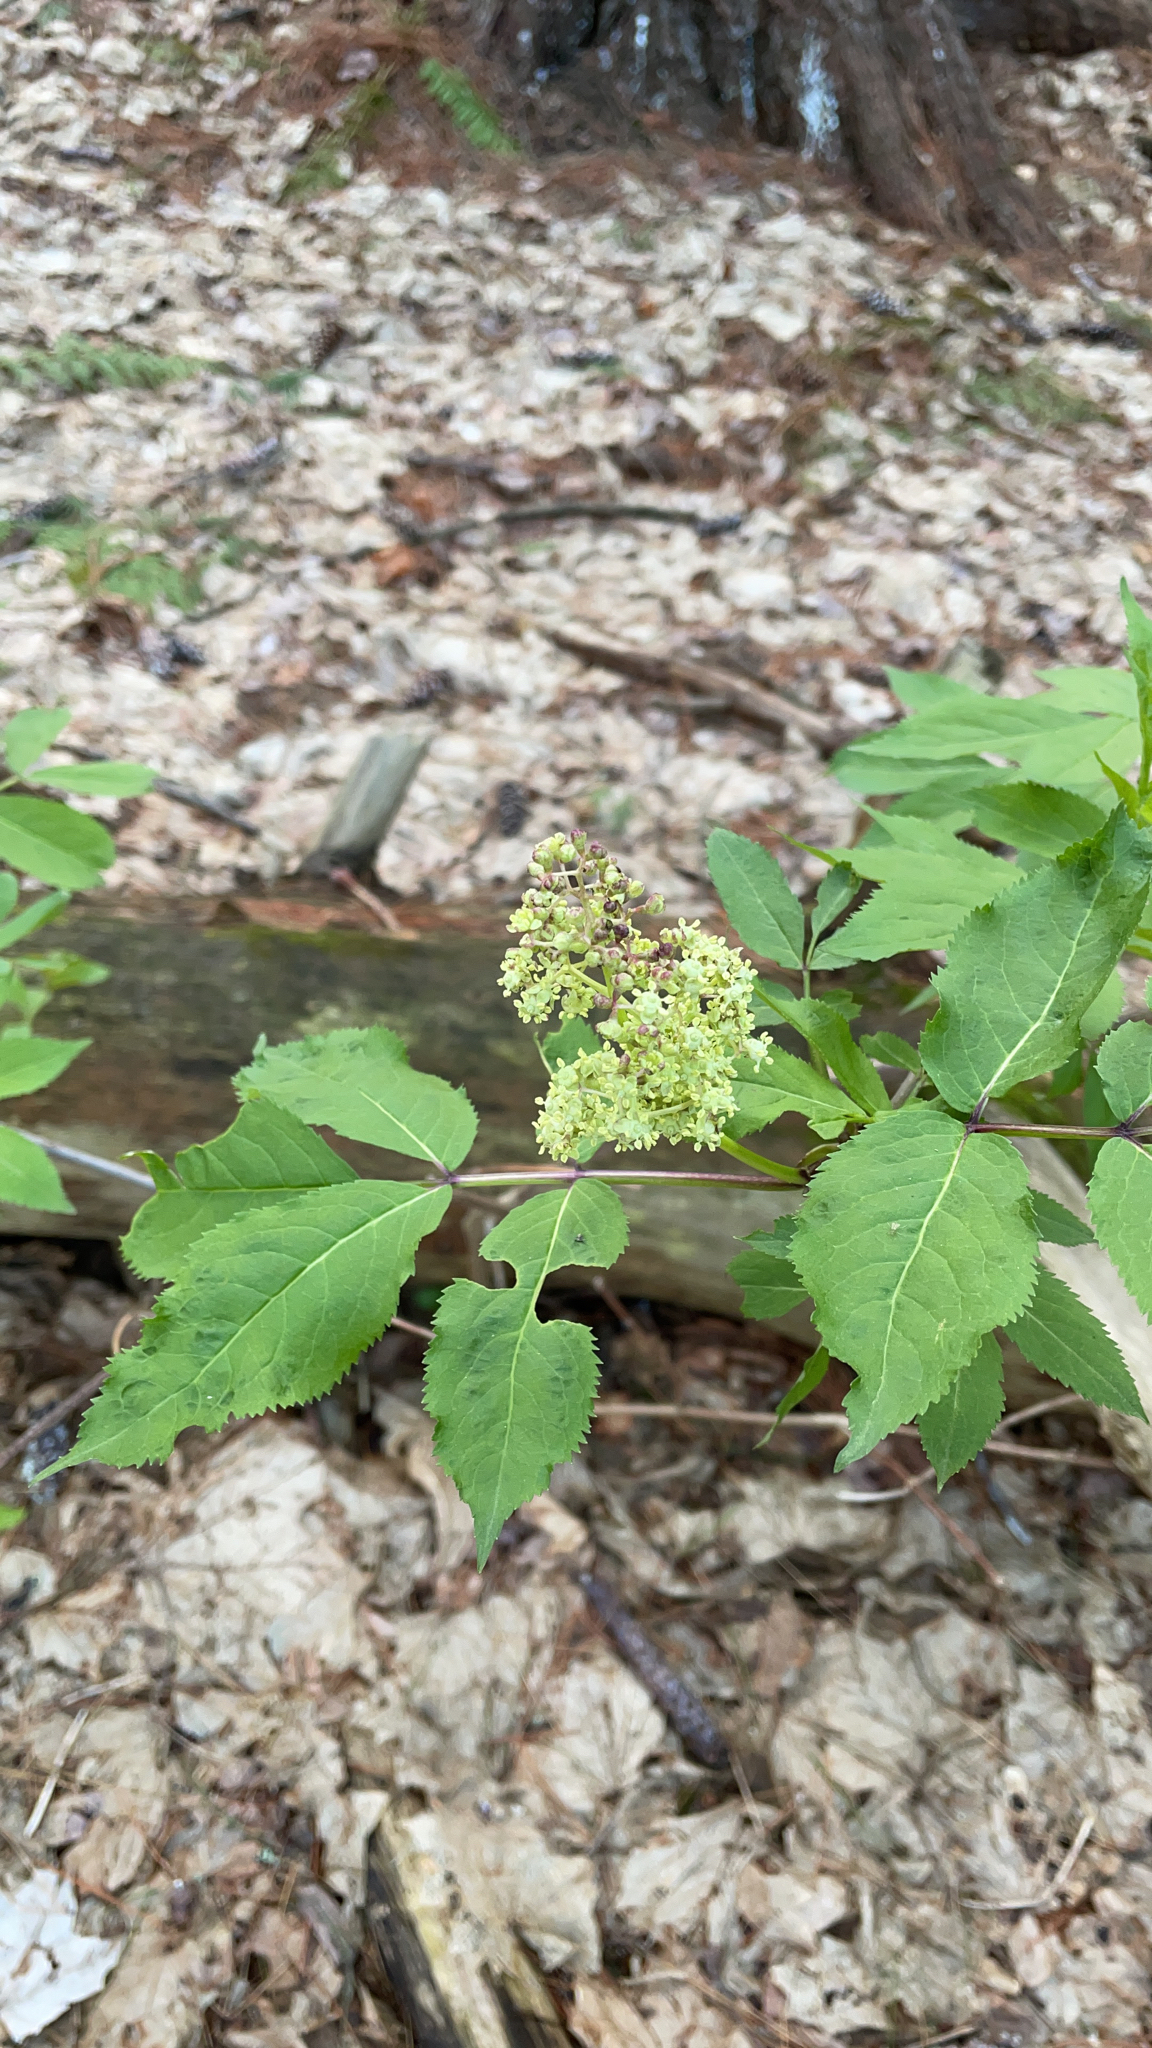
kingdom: Plantae
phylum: Tracheophyta
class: Magnoliopsida
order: Dipsacales
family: Viburnaceae
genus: Sambucus
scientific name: Sambucus racemosa
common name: Red-berried elder
